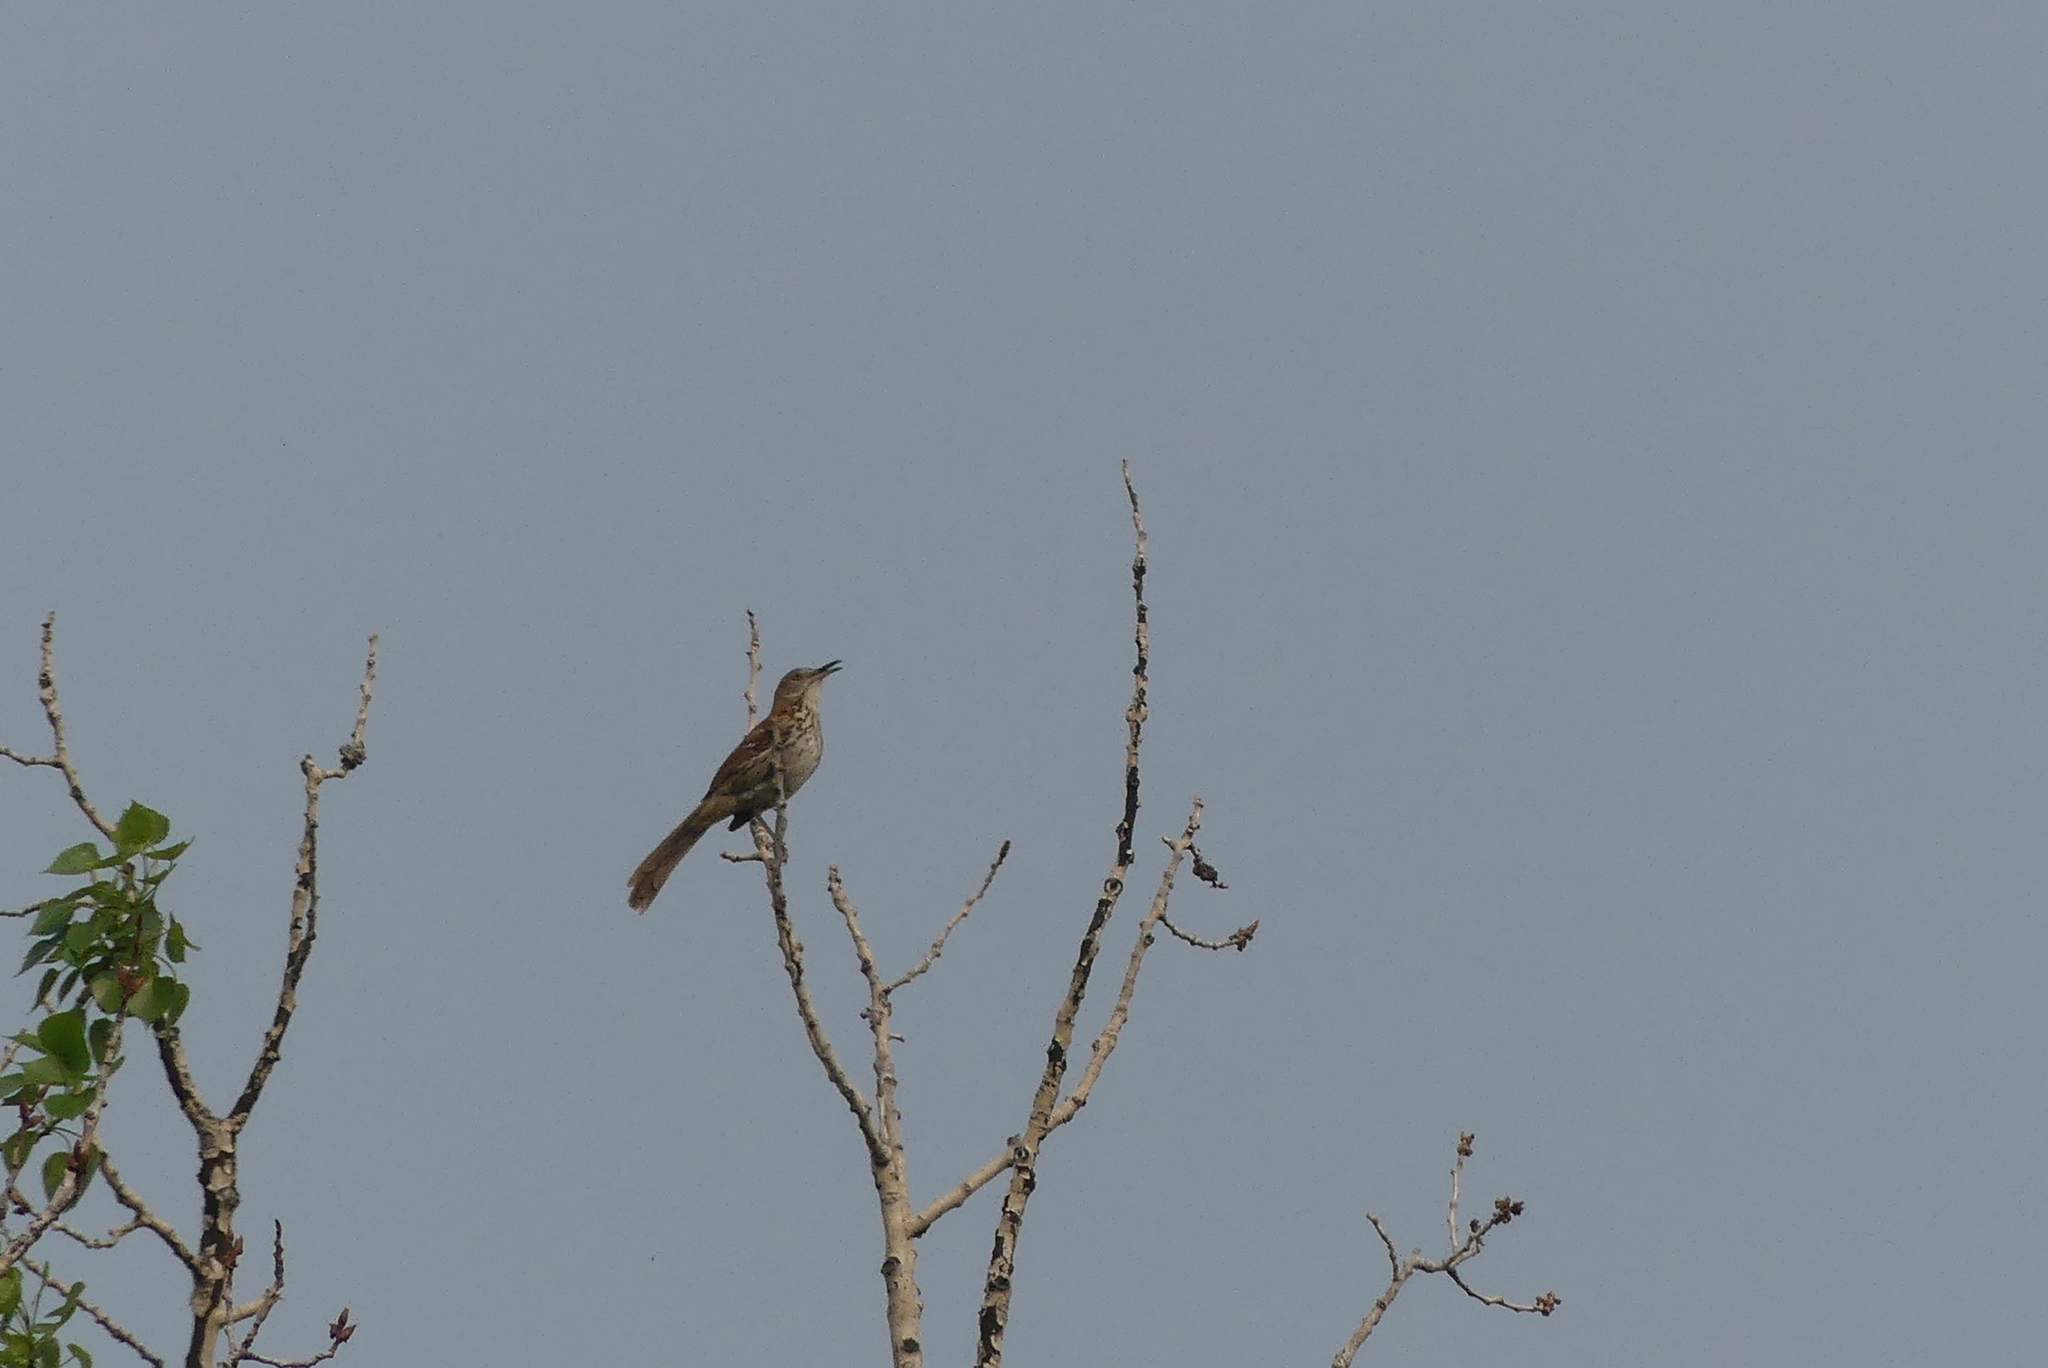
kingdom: Animalia
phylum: Chordata
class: Aves
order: Passeriformes
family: Mimidae
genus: Toxostoma
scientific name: Toxostoma rufum
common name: Brown thrasher
